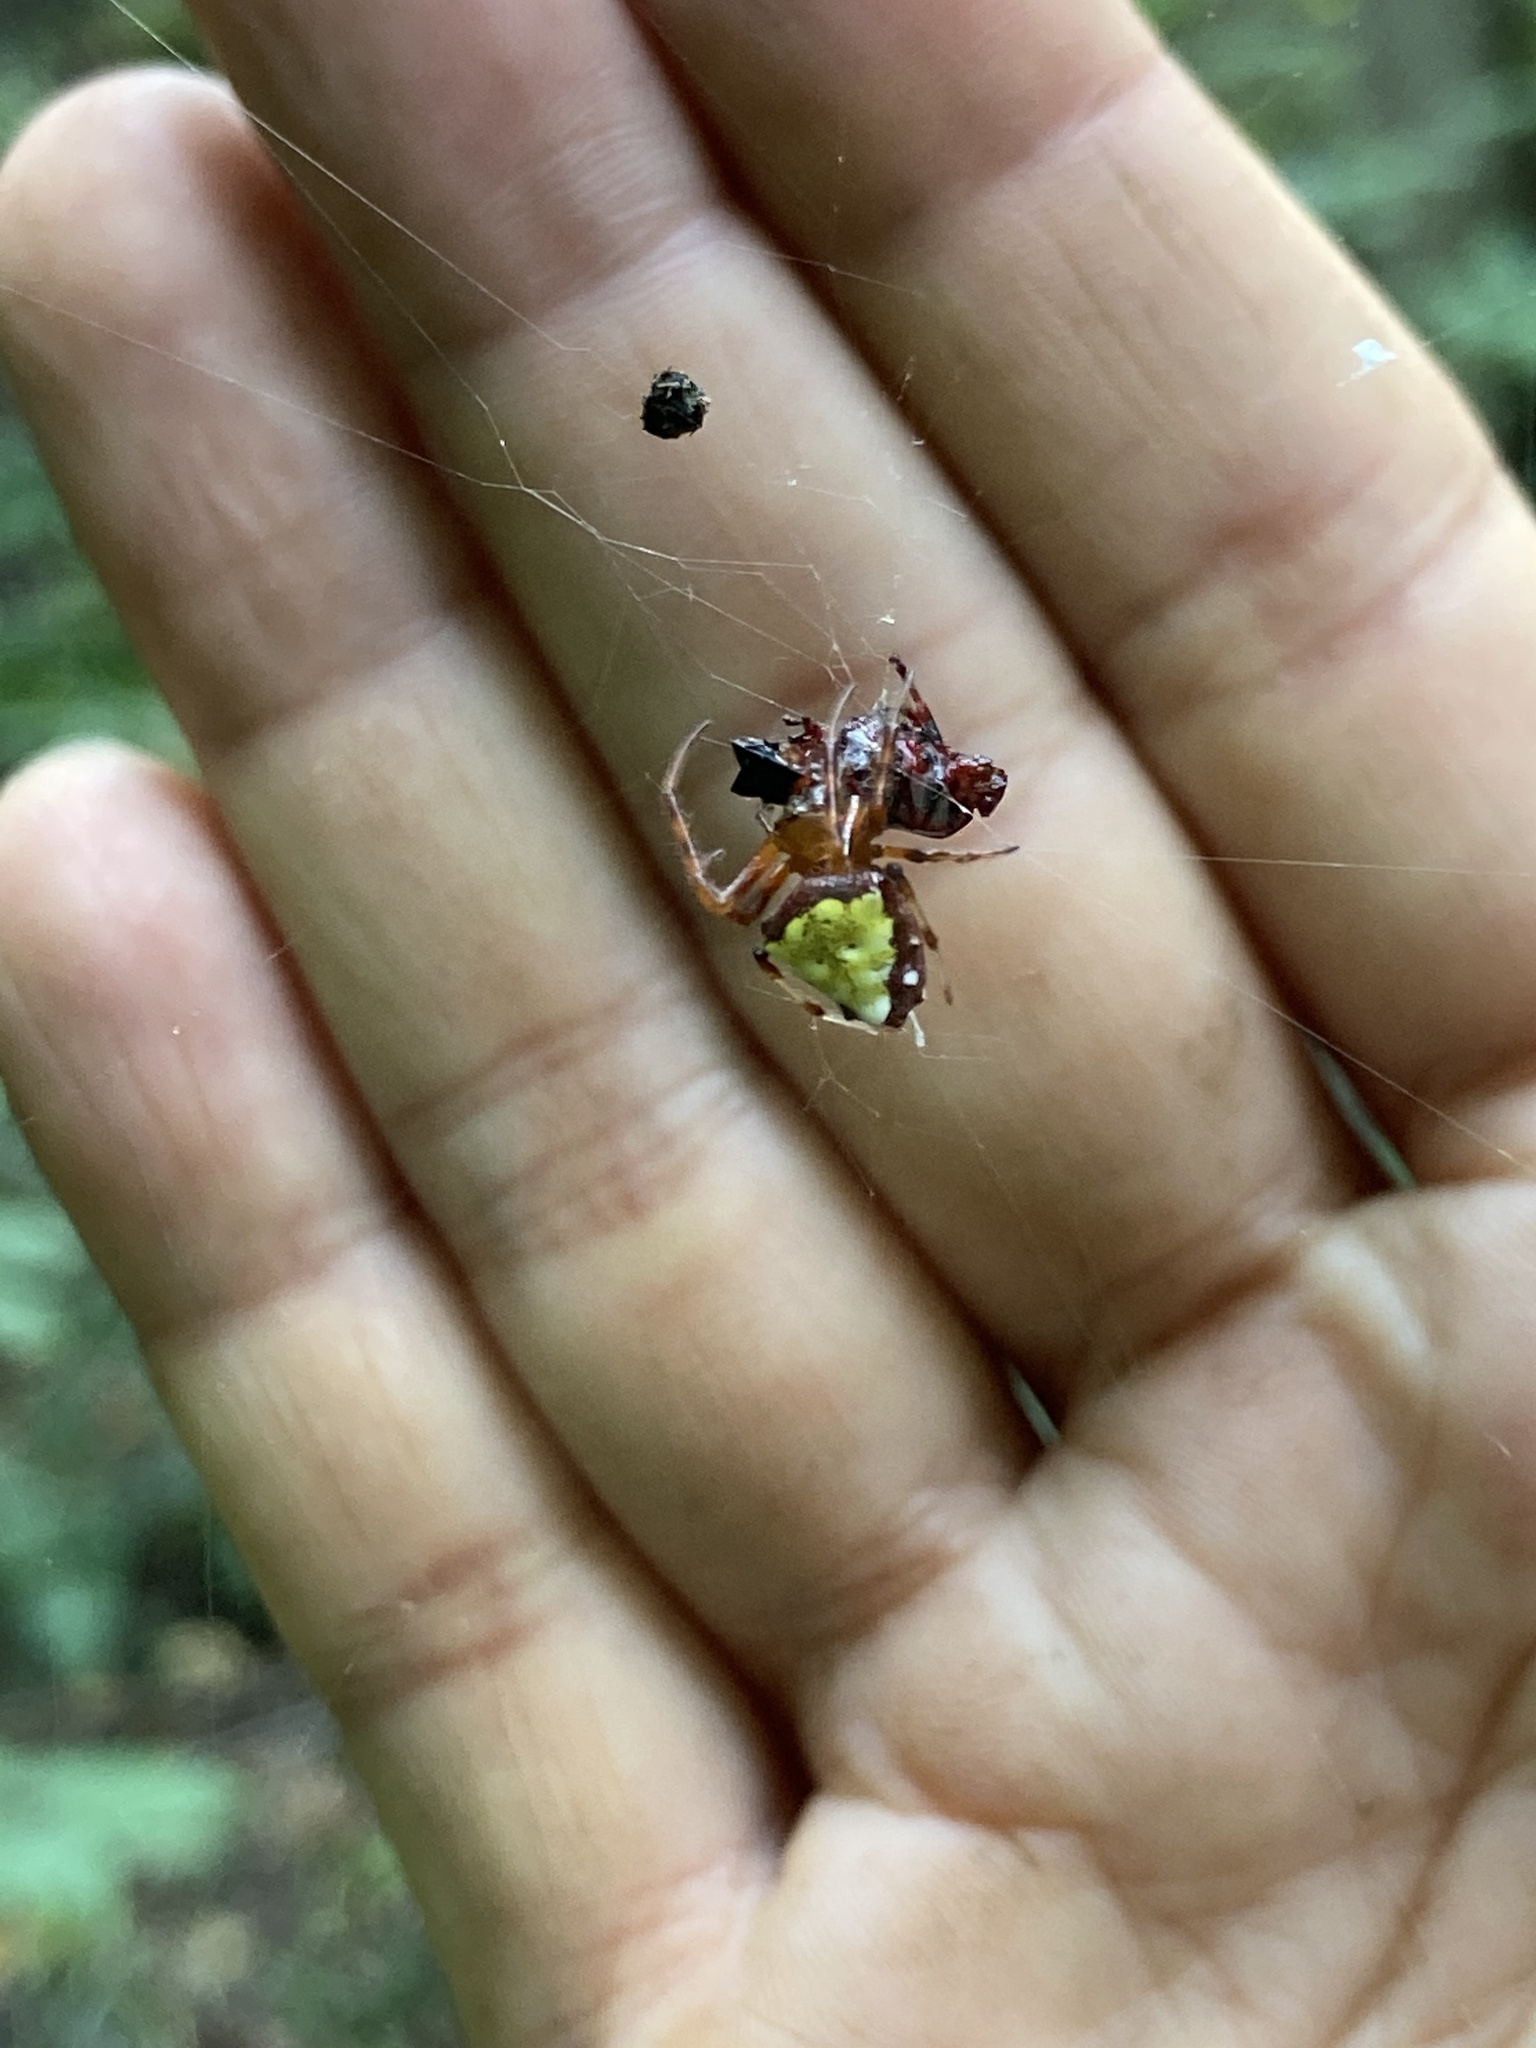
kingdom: Animalia
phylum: Arthropoda
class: Arachnida
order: Araneae
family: Araneidae
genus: Verrucosa
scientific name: Verrucosa arenata
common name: Orb weavers
